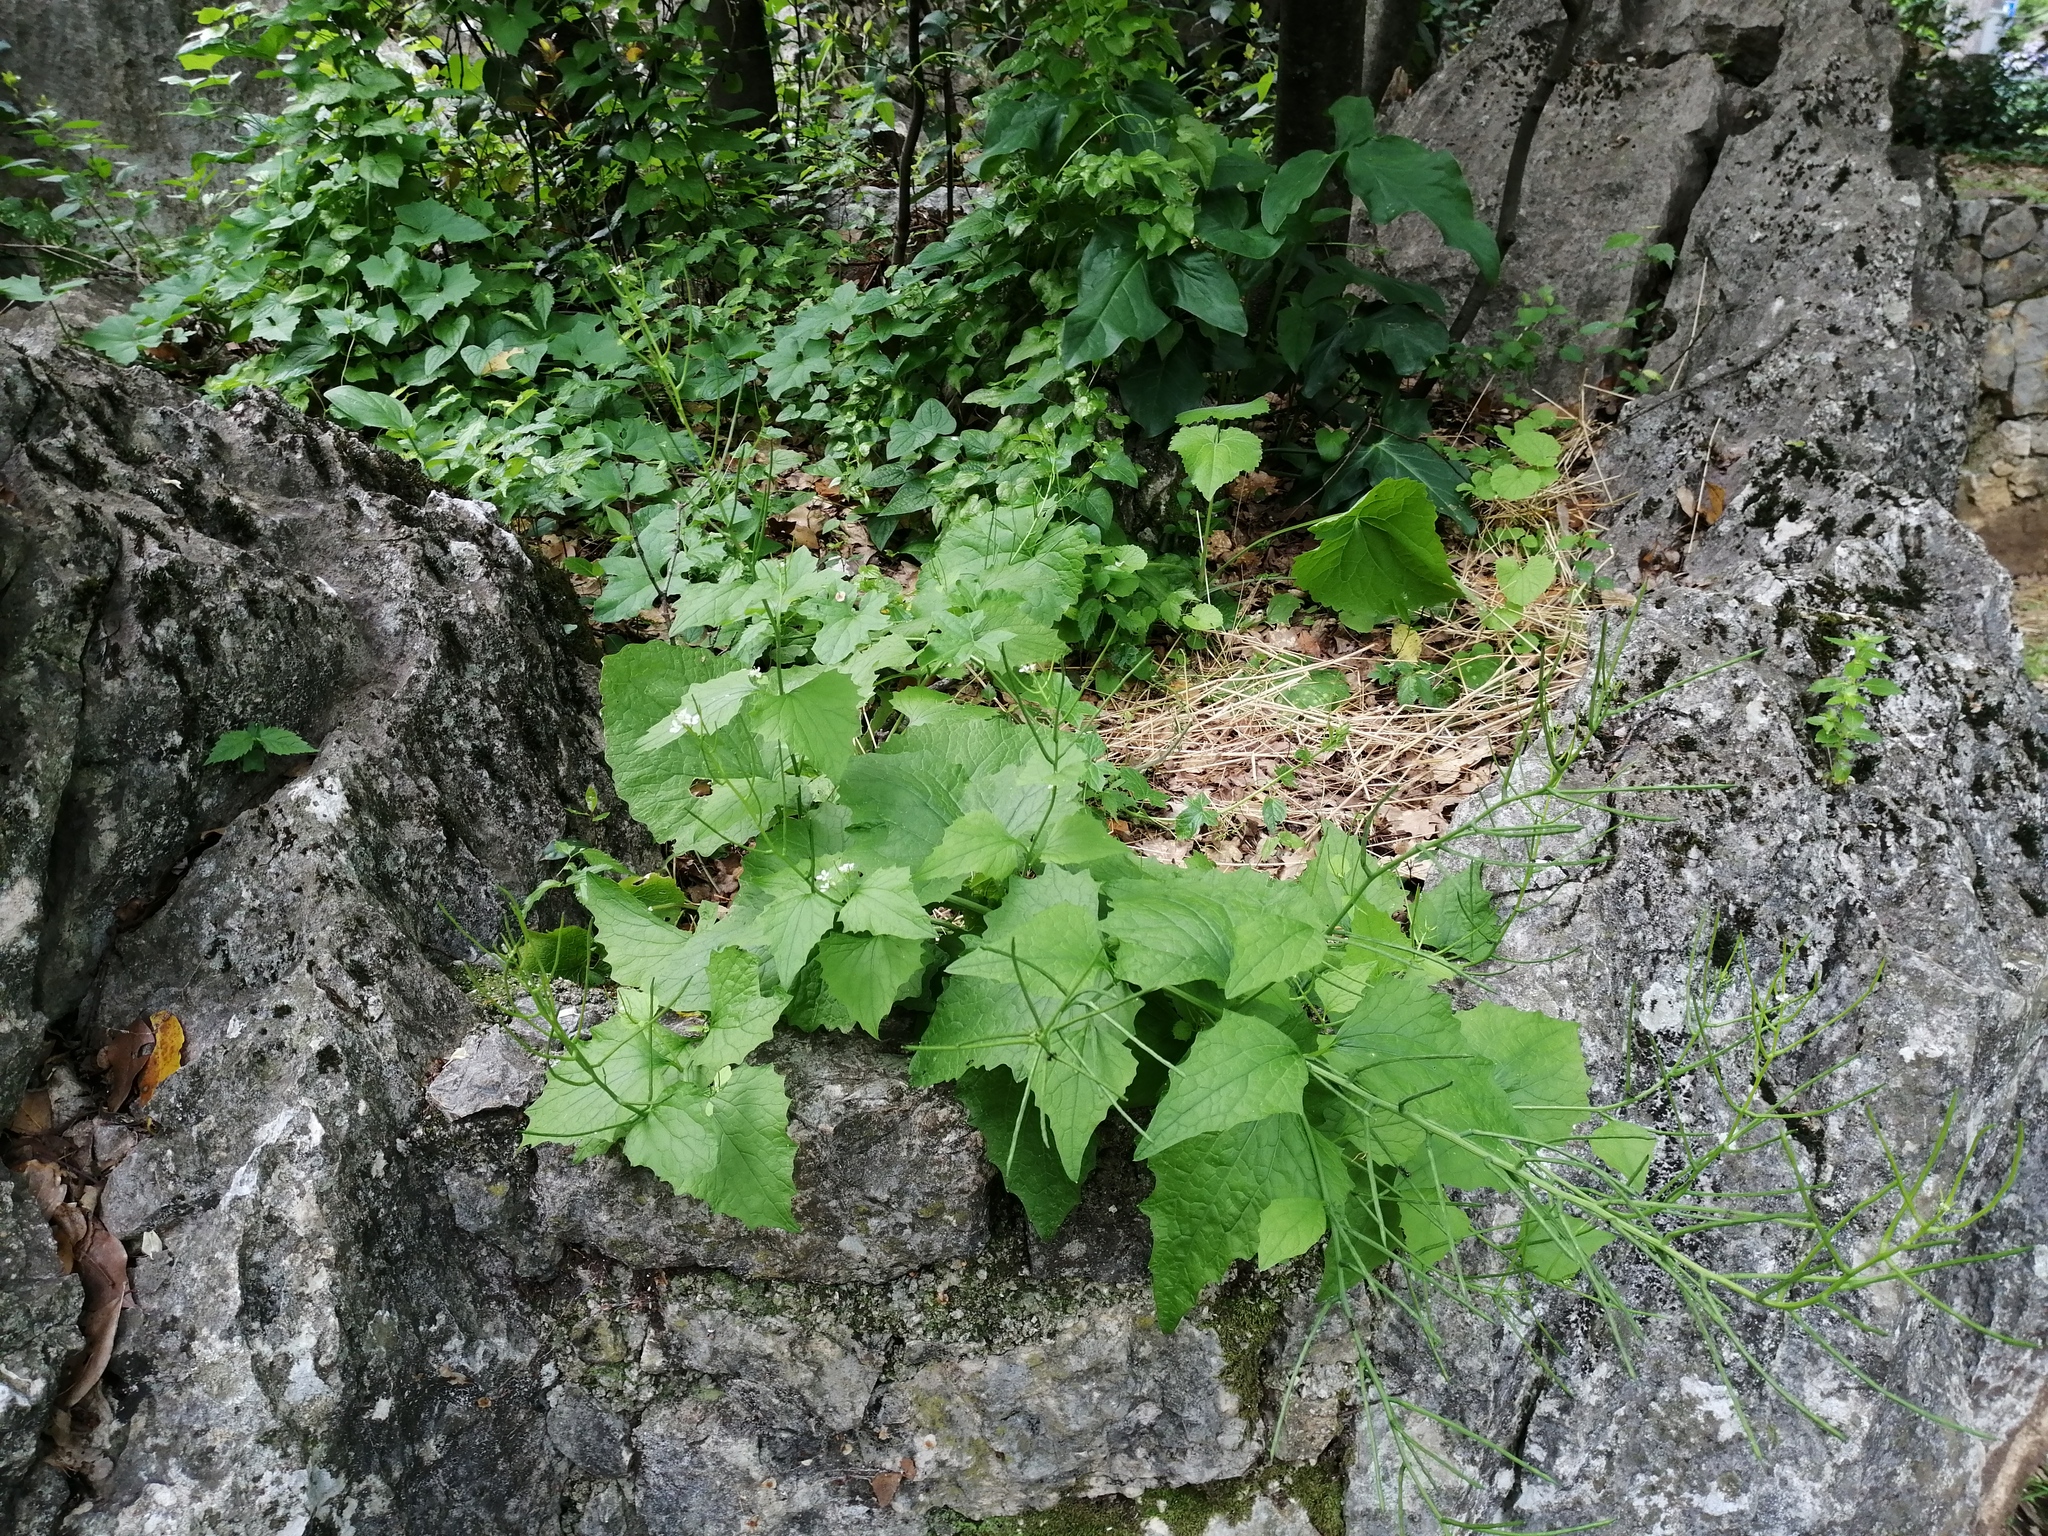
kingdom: Plantae
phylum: Tracheophyta
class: Magnoliopsida
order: Brassicales
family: Brassicaceae
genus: Alliaria
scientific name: Alliaria petiolata
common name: Garlic mustard
